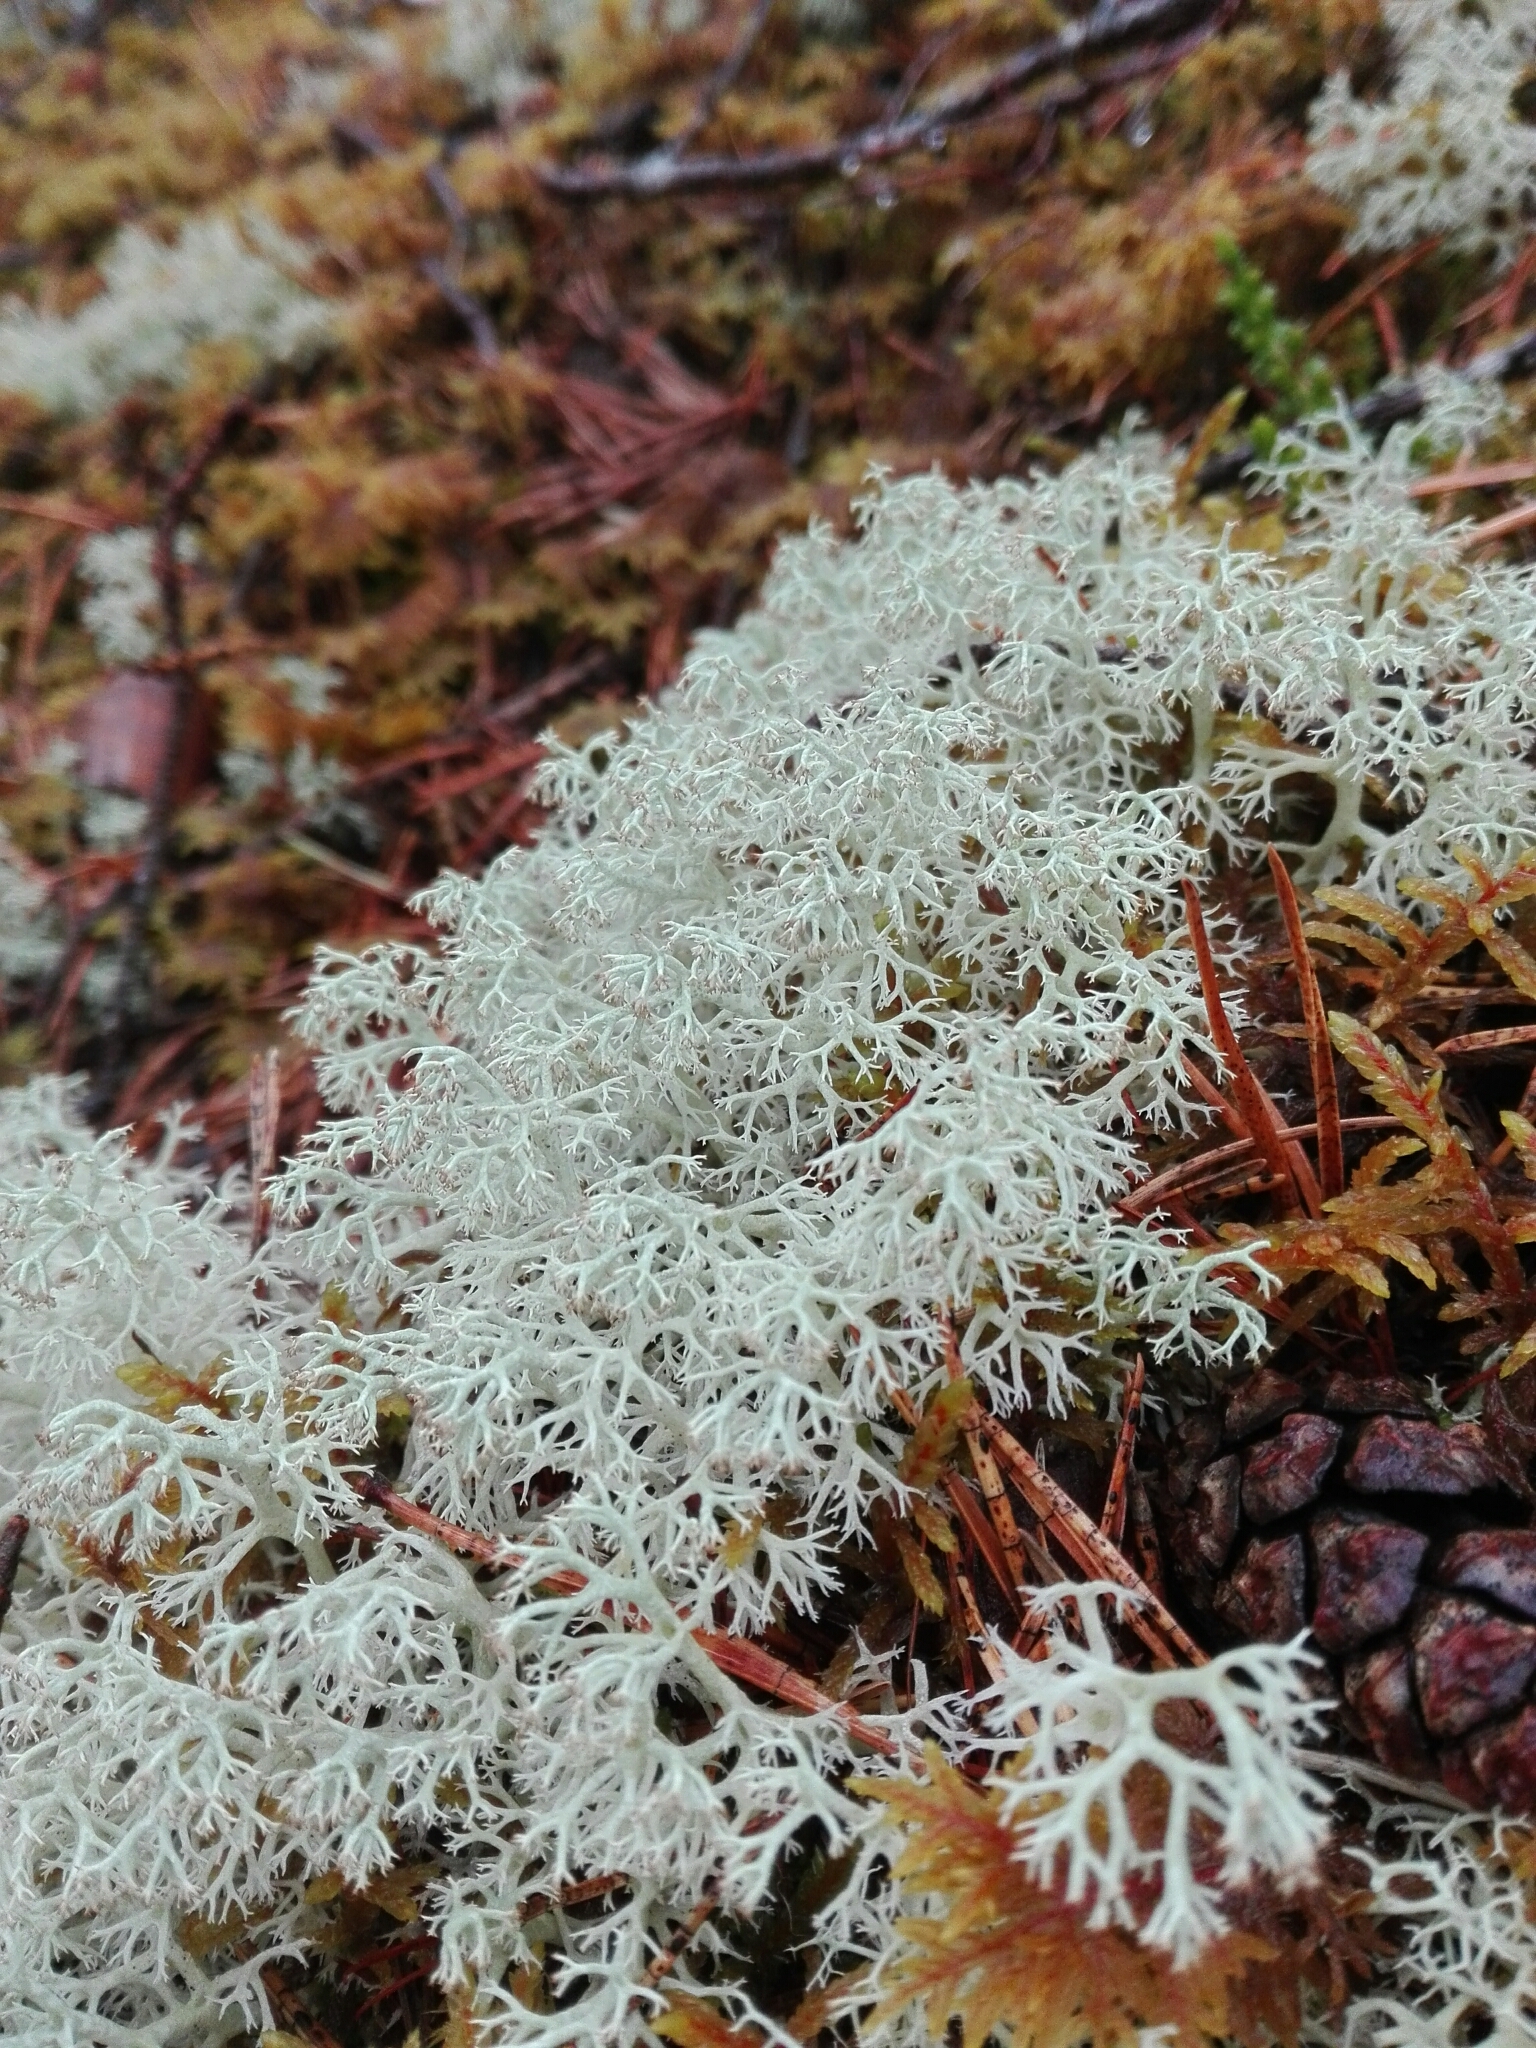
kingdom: Fungi
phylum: Ascomycota
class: Lecanoromycetes
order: Lecanorales
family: Cladoniaceae
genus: Cladonia
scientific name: Cladonia arbuscula
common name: Reindeer lichen
